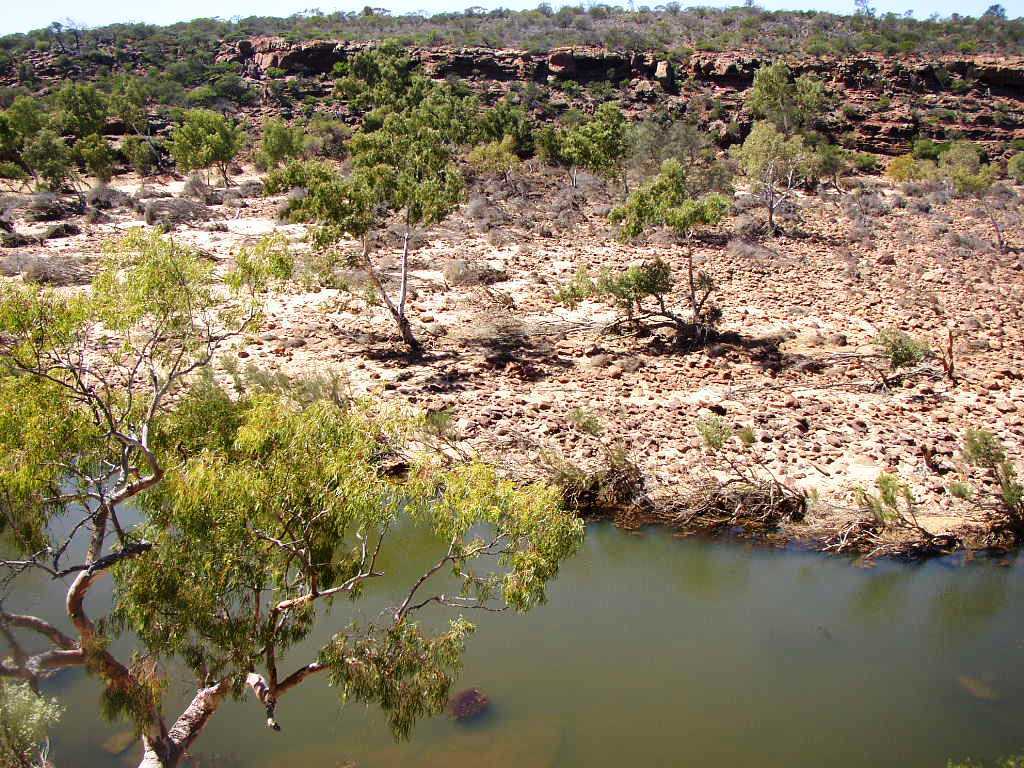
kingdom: Plantae
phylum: Tracheophyta
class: Magnoliopsida
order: Myrtales
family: Myrtaceae
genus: Eucalyptus
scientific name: Eucalyptus camaldulensis
